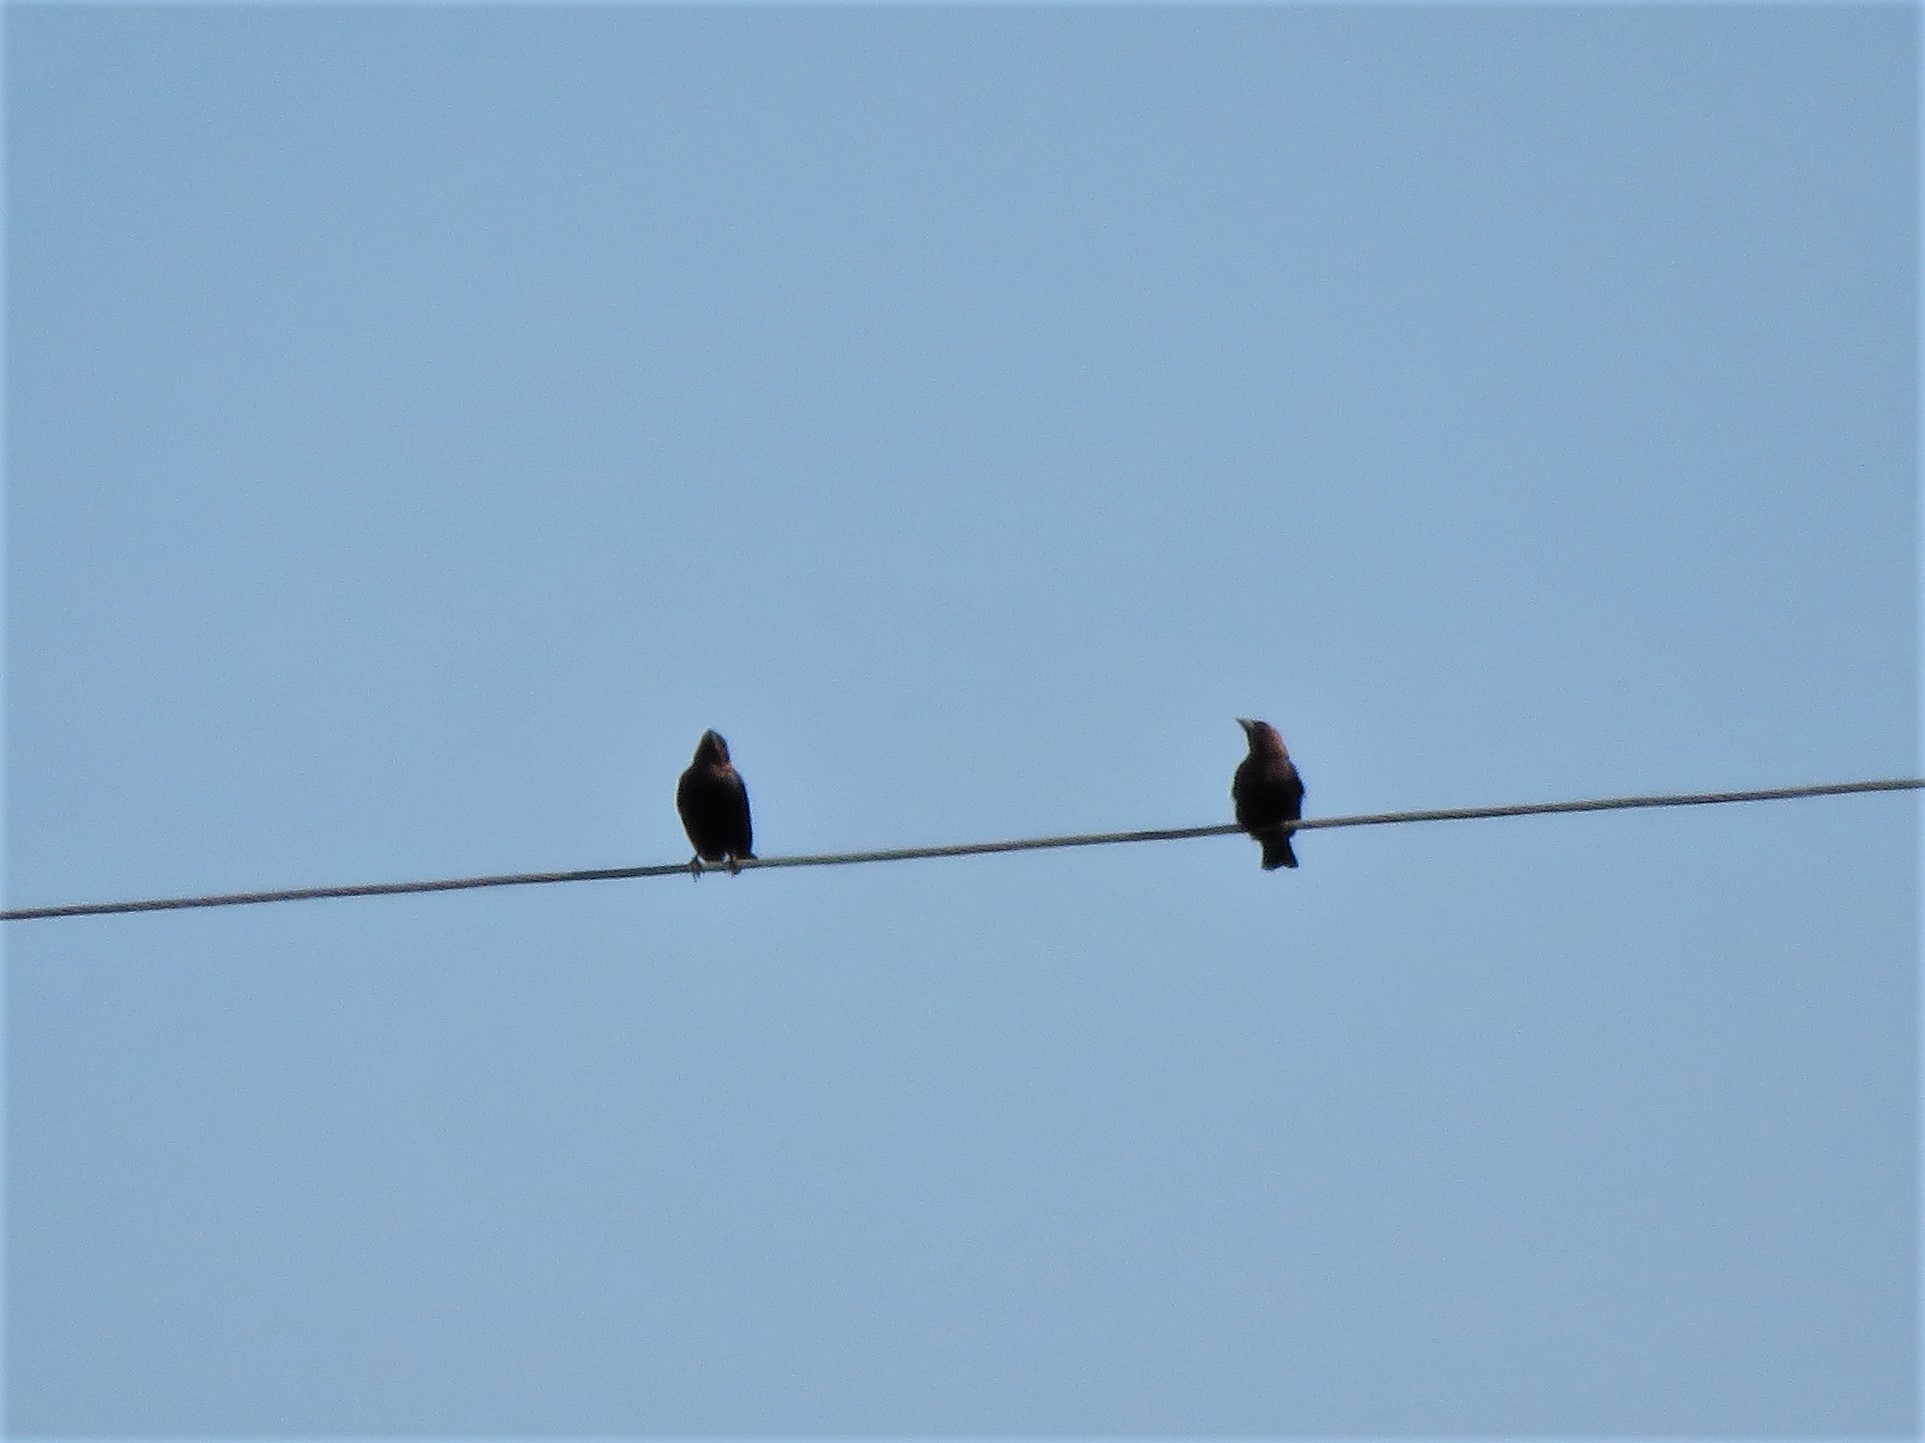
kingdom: Animalia
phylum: Chordata
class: Aves
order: Passeriformes
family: Icteridae
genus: Molothrus
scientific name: Molothrus ater
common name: Brown-headed cowbird
